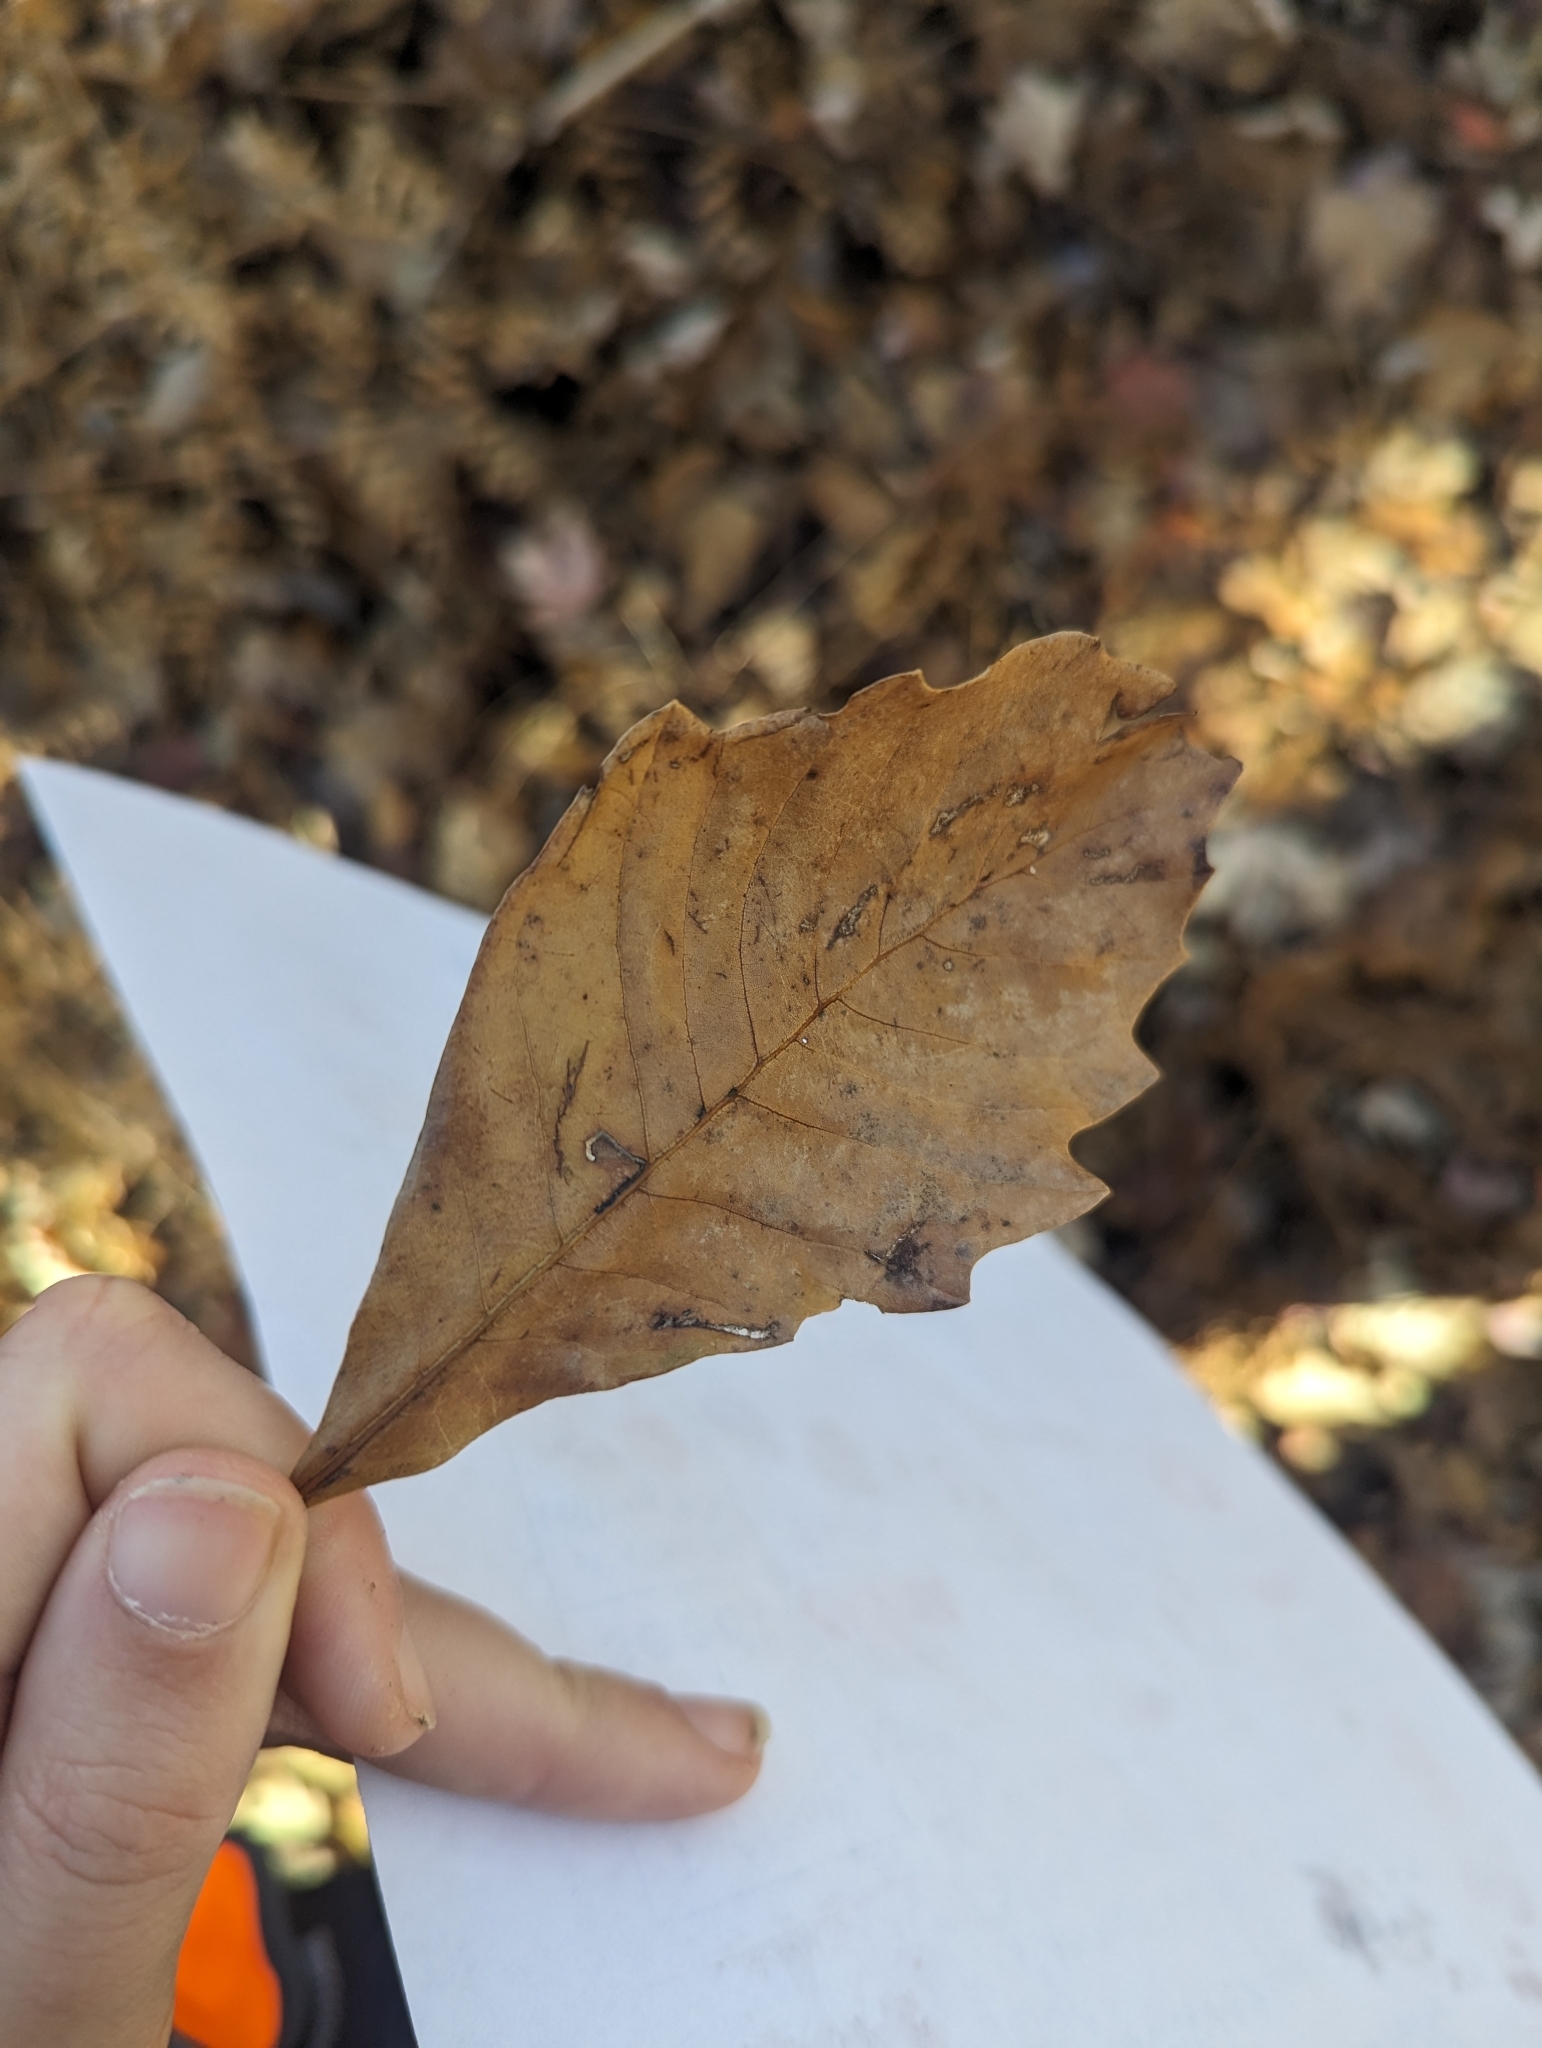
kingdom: Plantae
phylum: Tracheophyta
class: Magnoliopsida
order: Fagales
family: Fagaceae
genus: Quercus
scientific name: Quercus bicolor
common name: Swamp white oak
